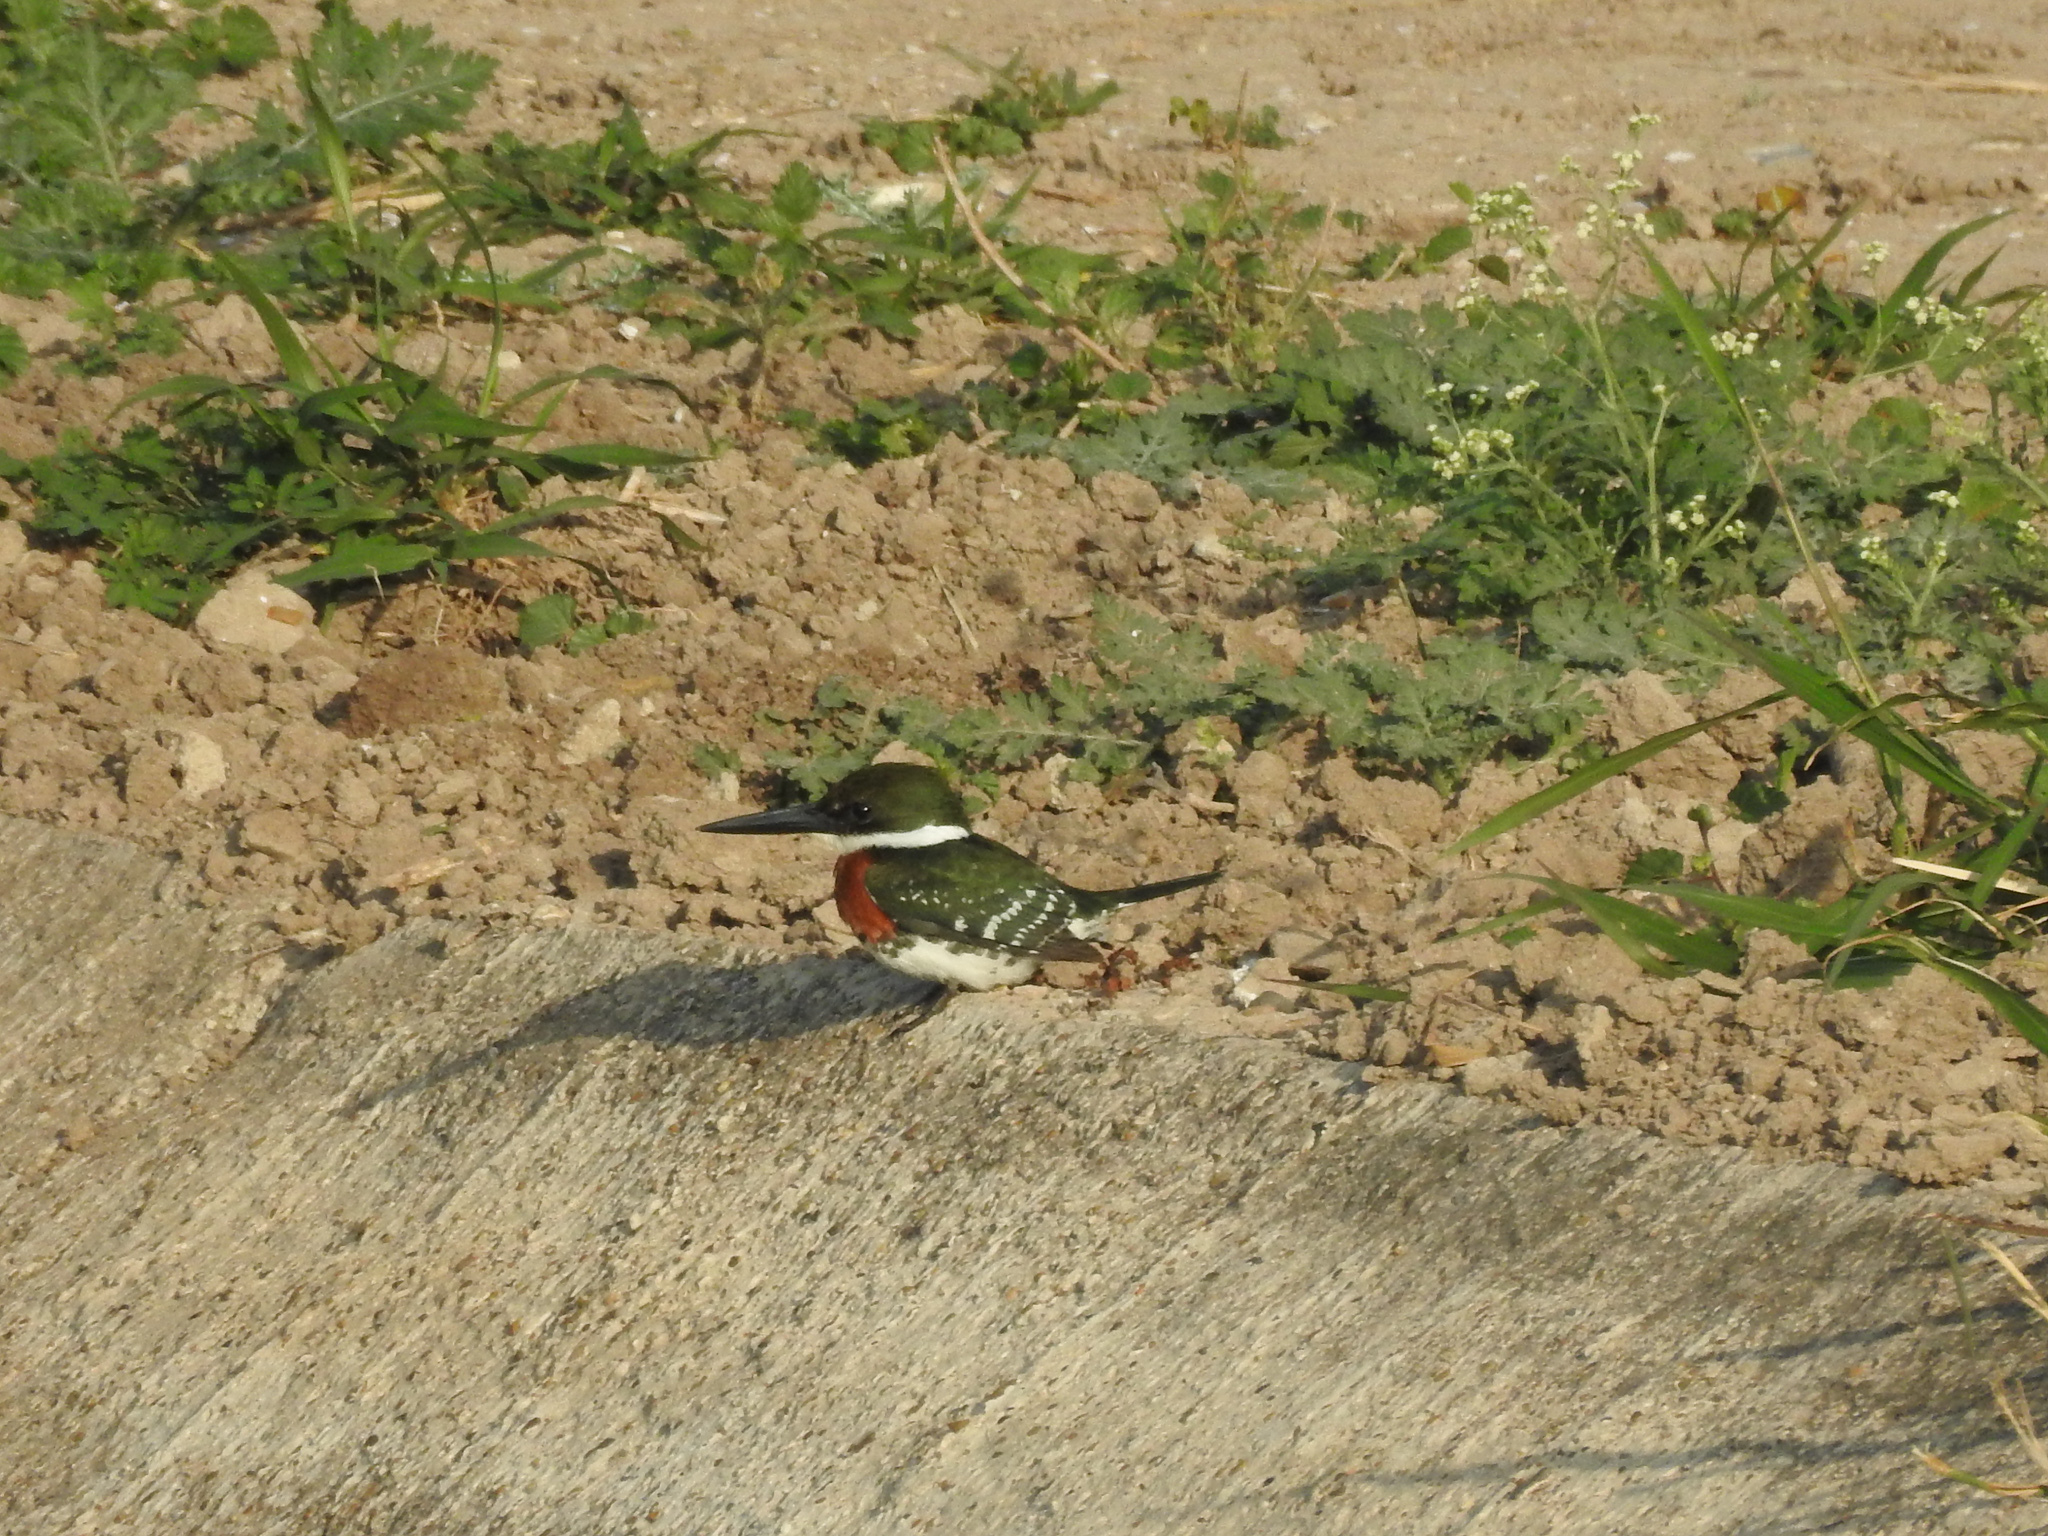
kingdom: Animalia
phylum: Chordata
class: Aves
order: Coraciiformes
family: Alcedinidae
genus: Chloroceryle
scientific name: Chloroceryle americana
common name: Green kingfisher
